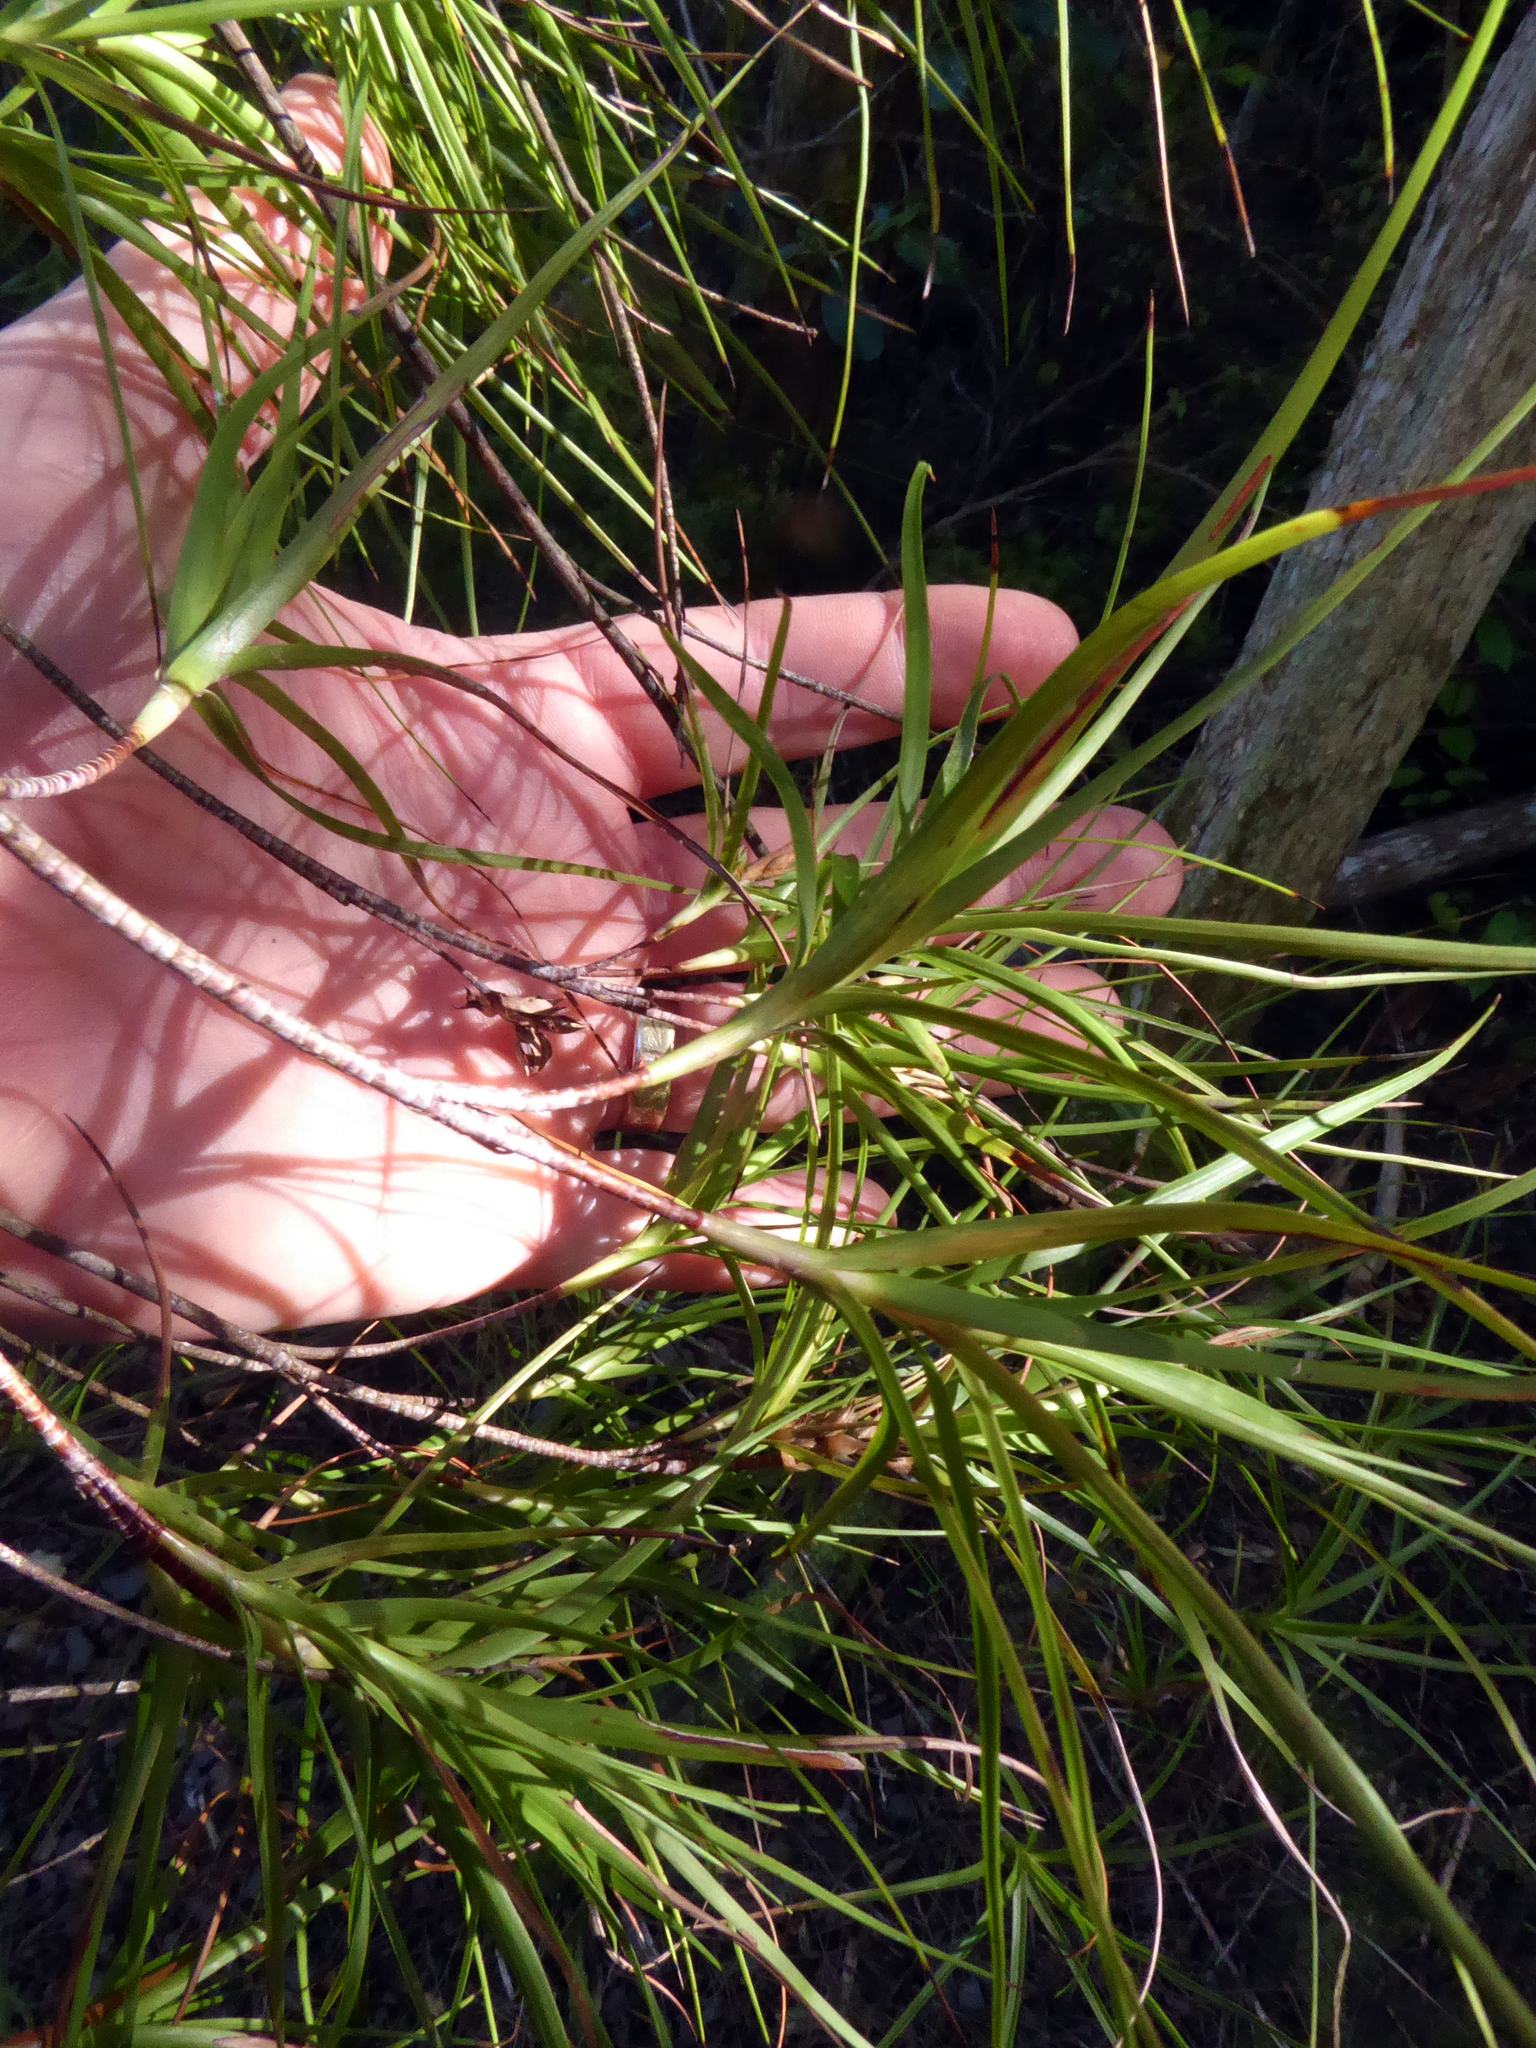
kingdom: Plantae
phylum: Tracheophyta
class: Magnoliopsida
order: Ericales
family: Ericaceae
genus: Dracophyllum
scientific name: Dracophyllum sinclairii
